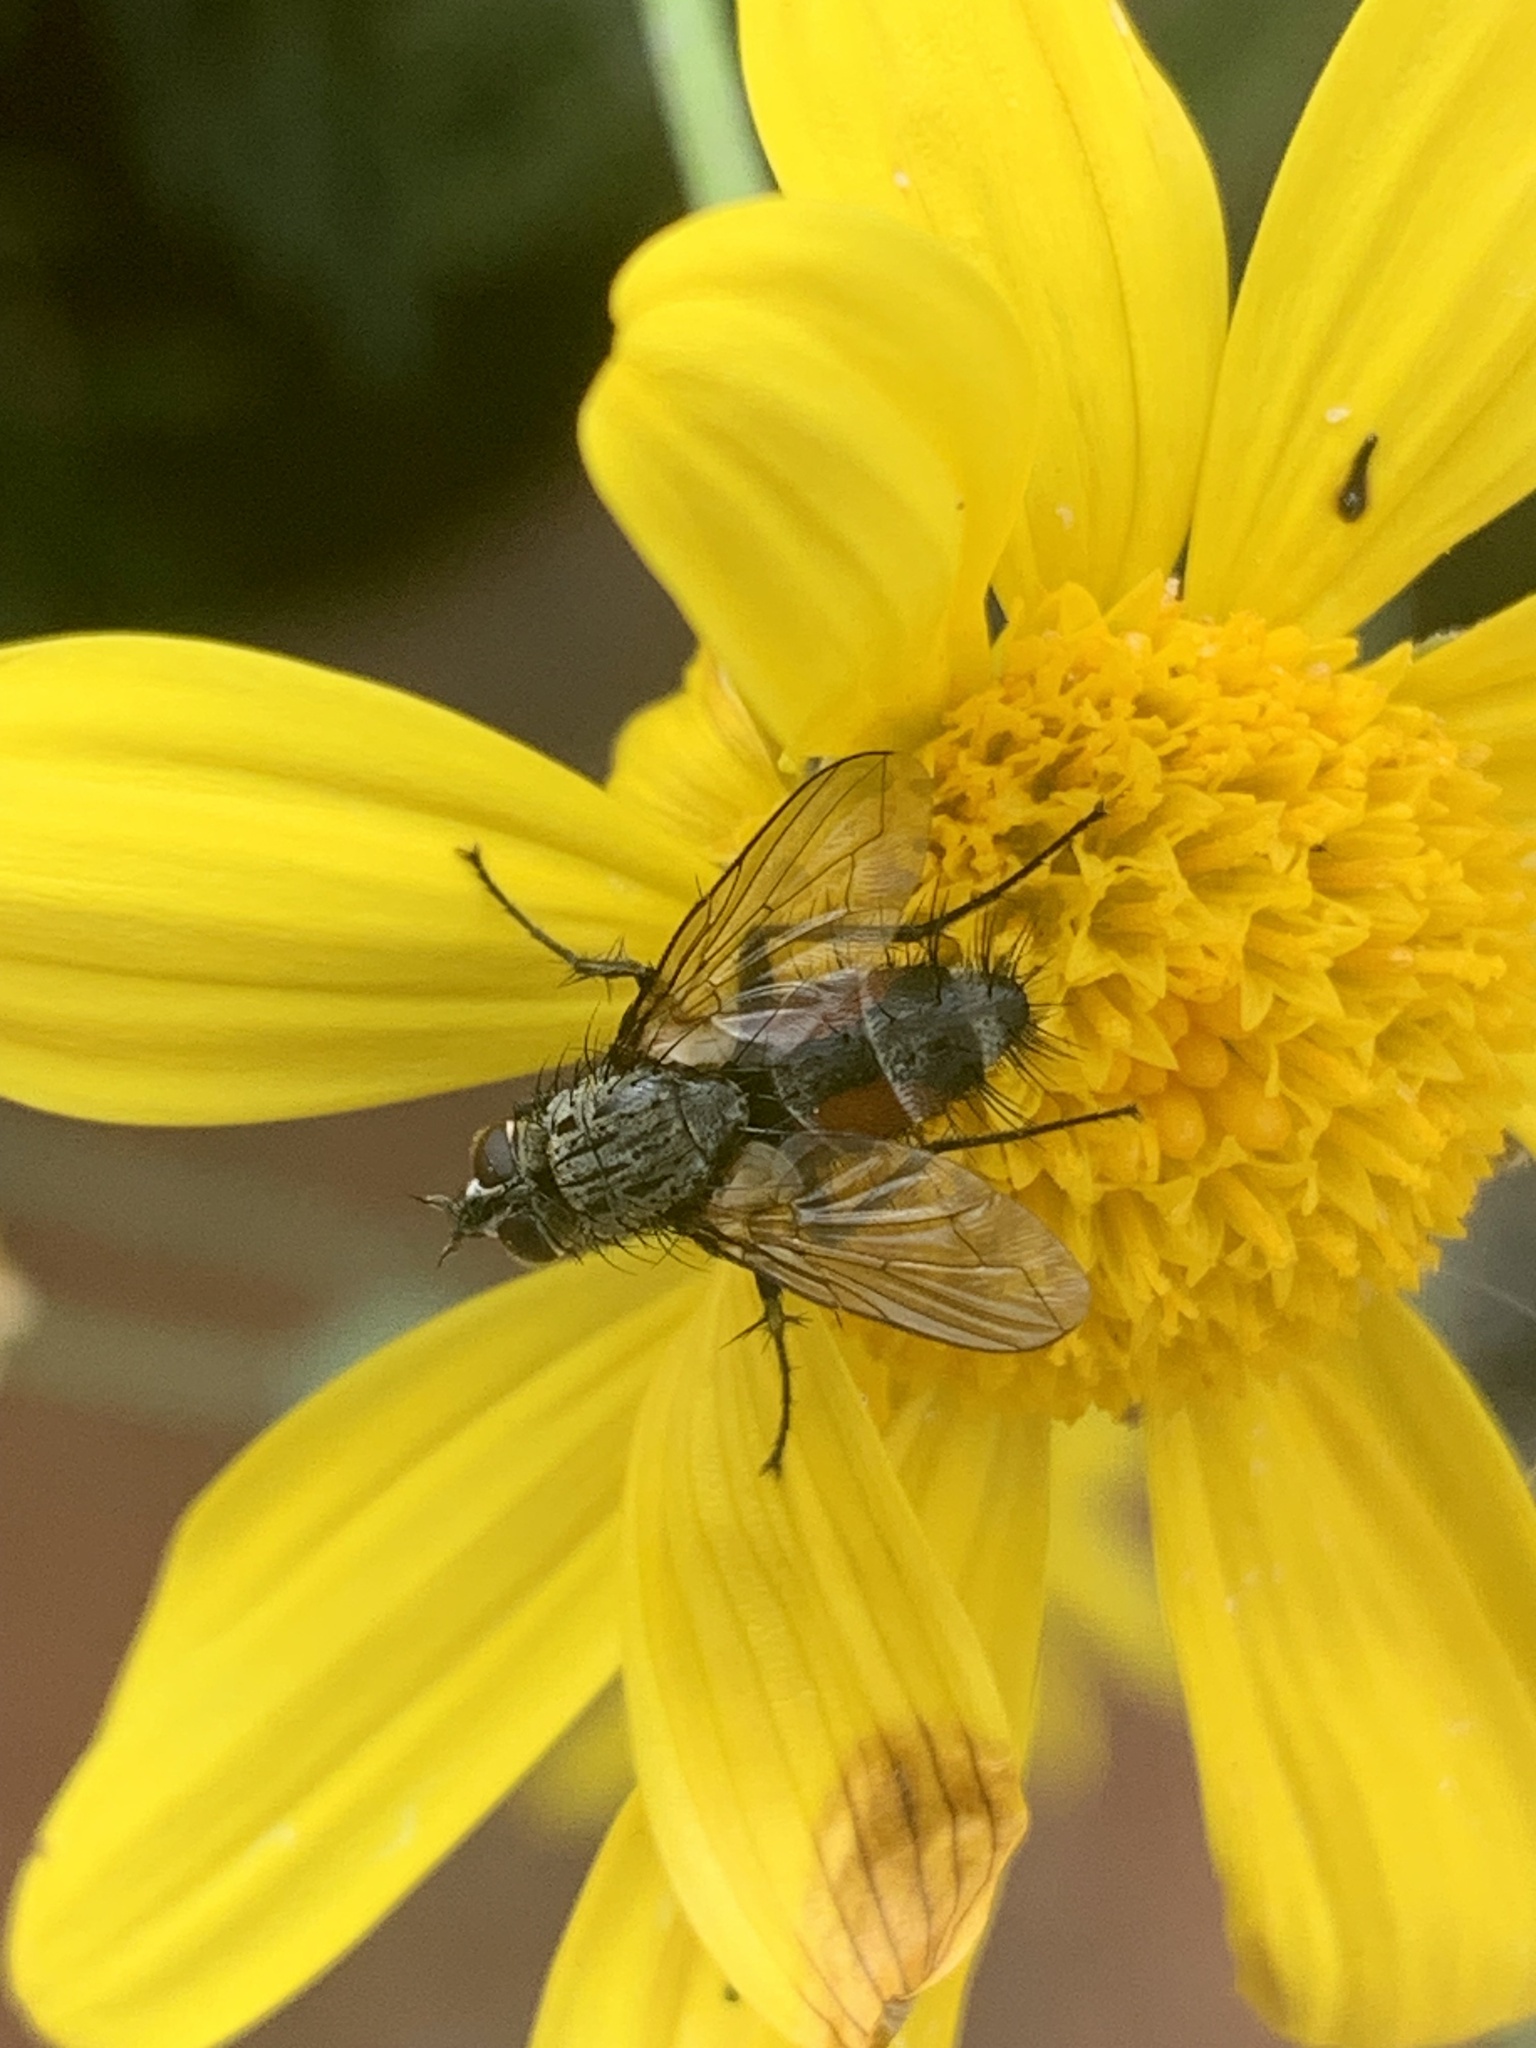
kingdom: Animalia
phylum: Arthropoda
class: Insecta
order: Diptera
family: Tachinidae
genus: Eriothrix
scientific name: Eriothrix rufomaculatus
